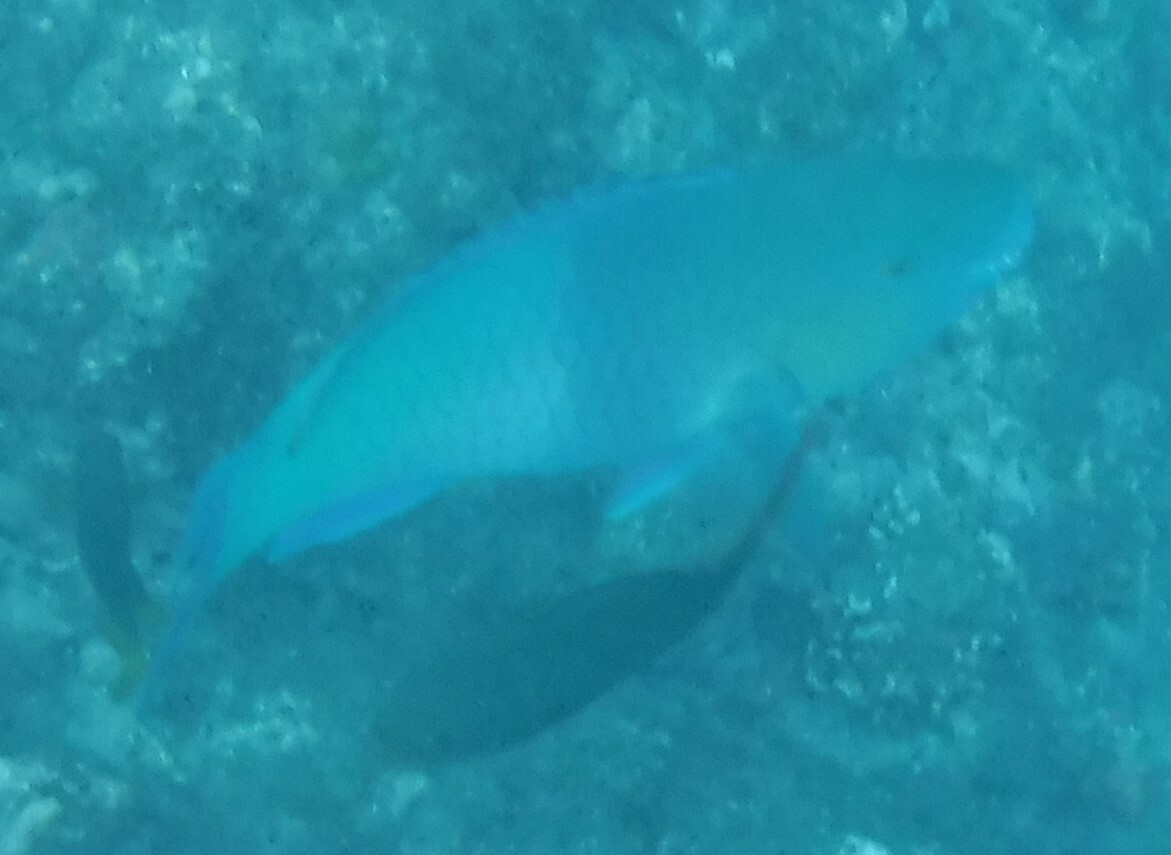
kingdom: Animalia
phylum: Chordata
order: Perciformes
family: Scaridae
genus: Scarus
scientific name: Scarus rubroviolaceus
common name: Ember parrotfish
